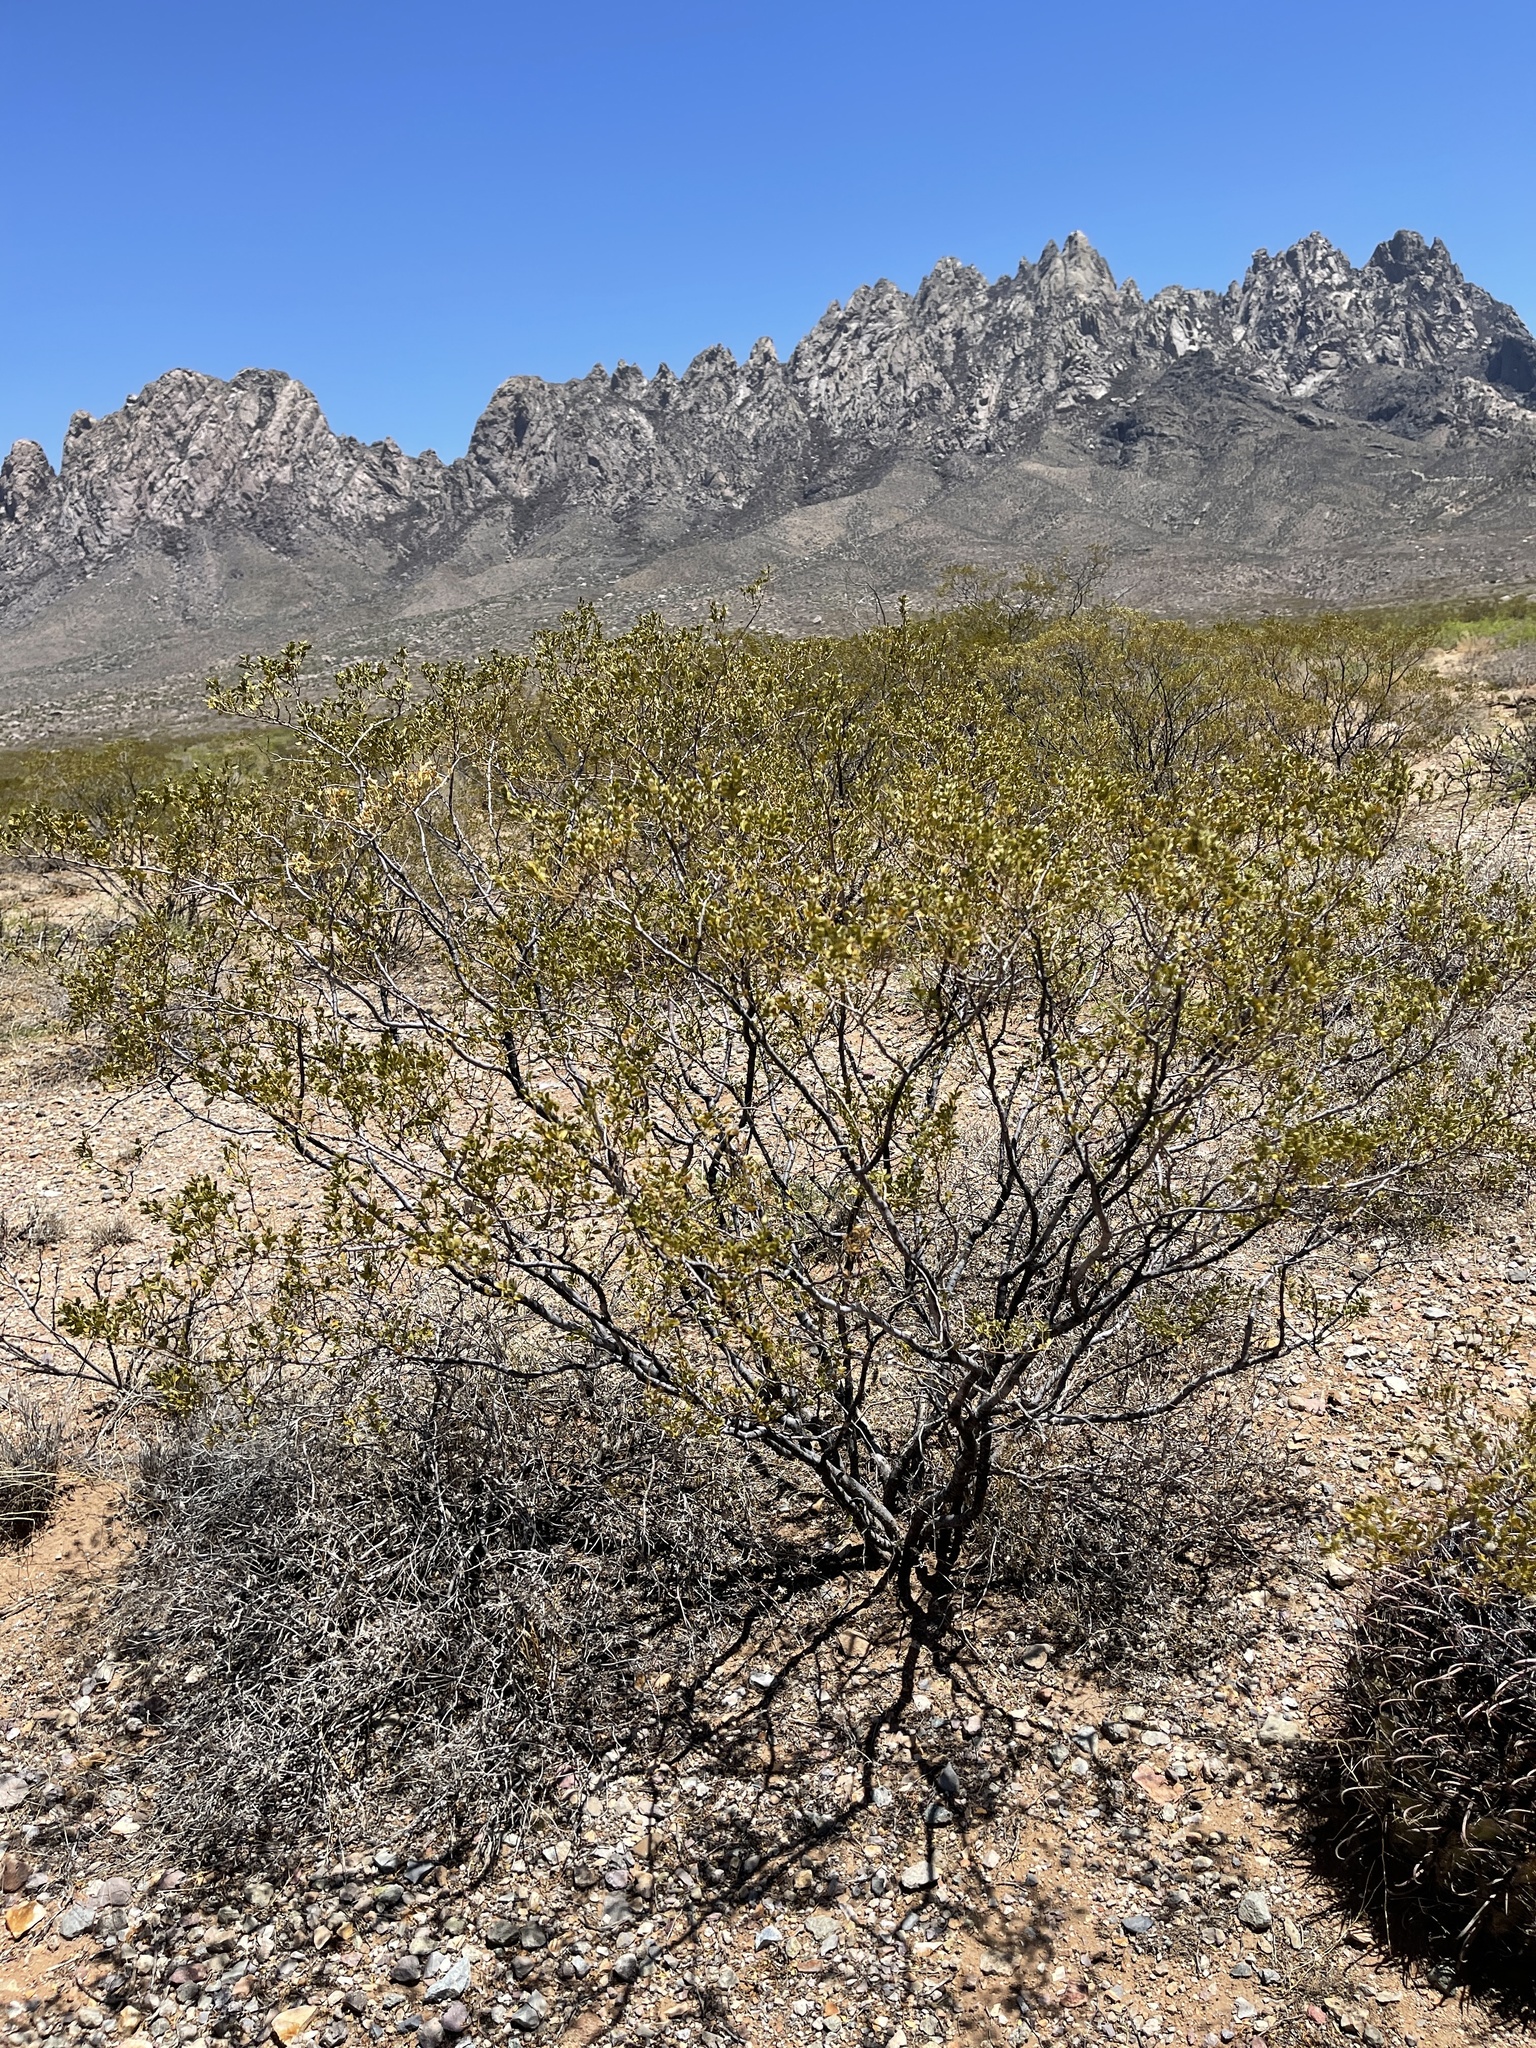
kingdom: Plantae
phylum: Tracheophyta
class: Magnoliopsida
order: Zygophyllales
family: Zygophyllaceae
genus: Larrea
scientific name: Larrea tridentata
